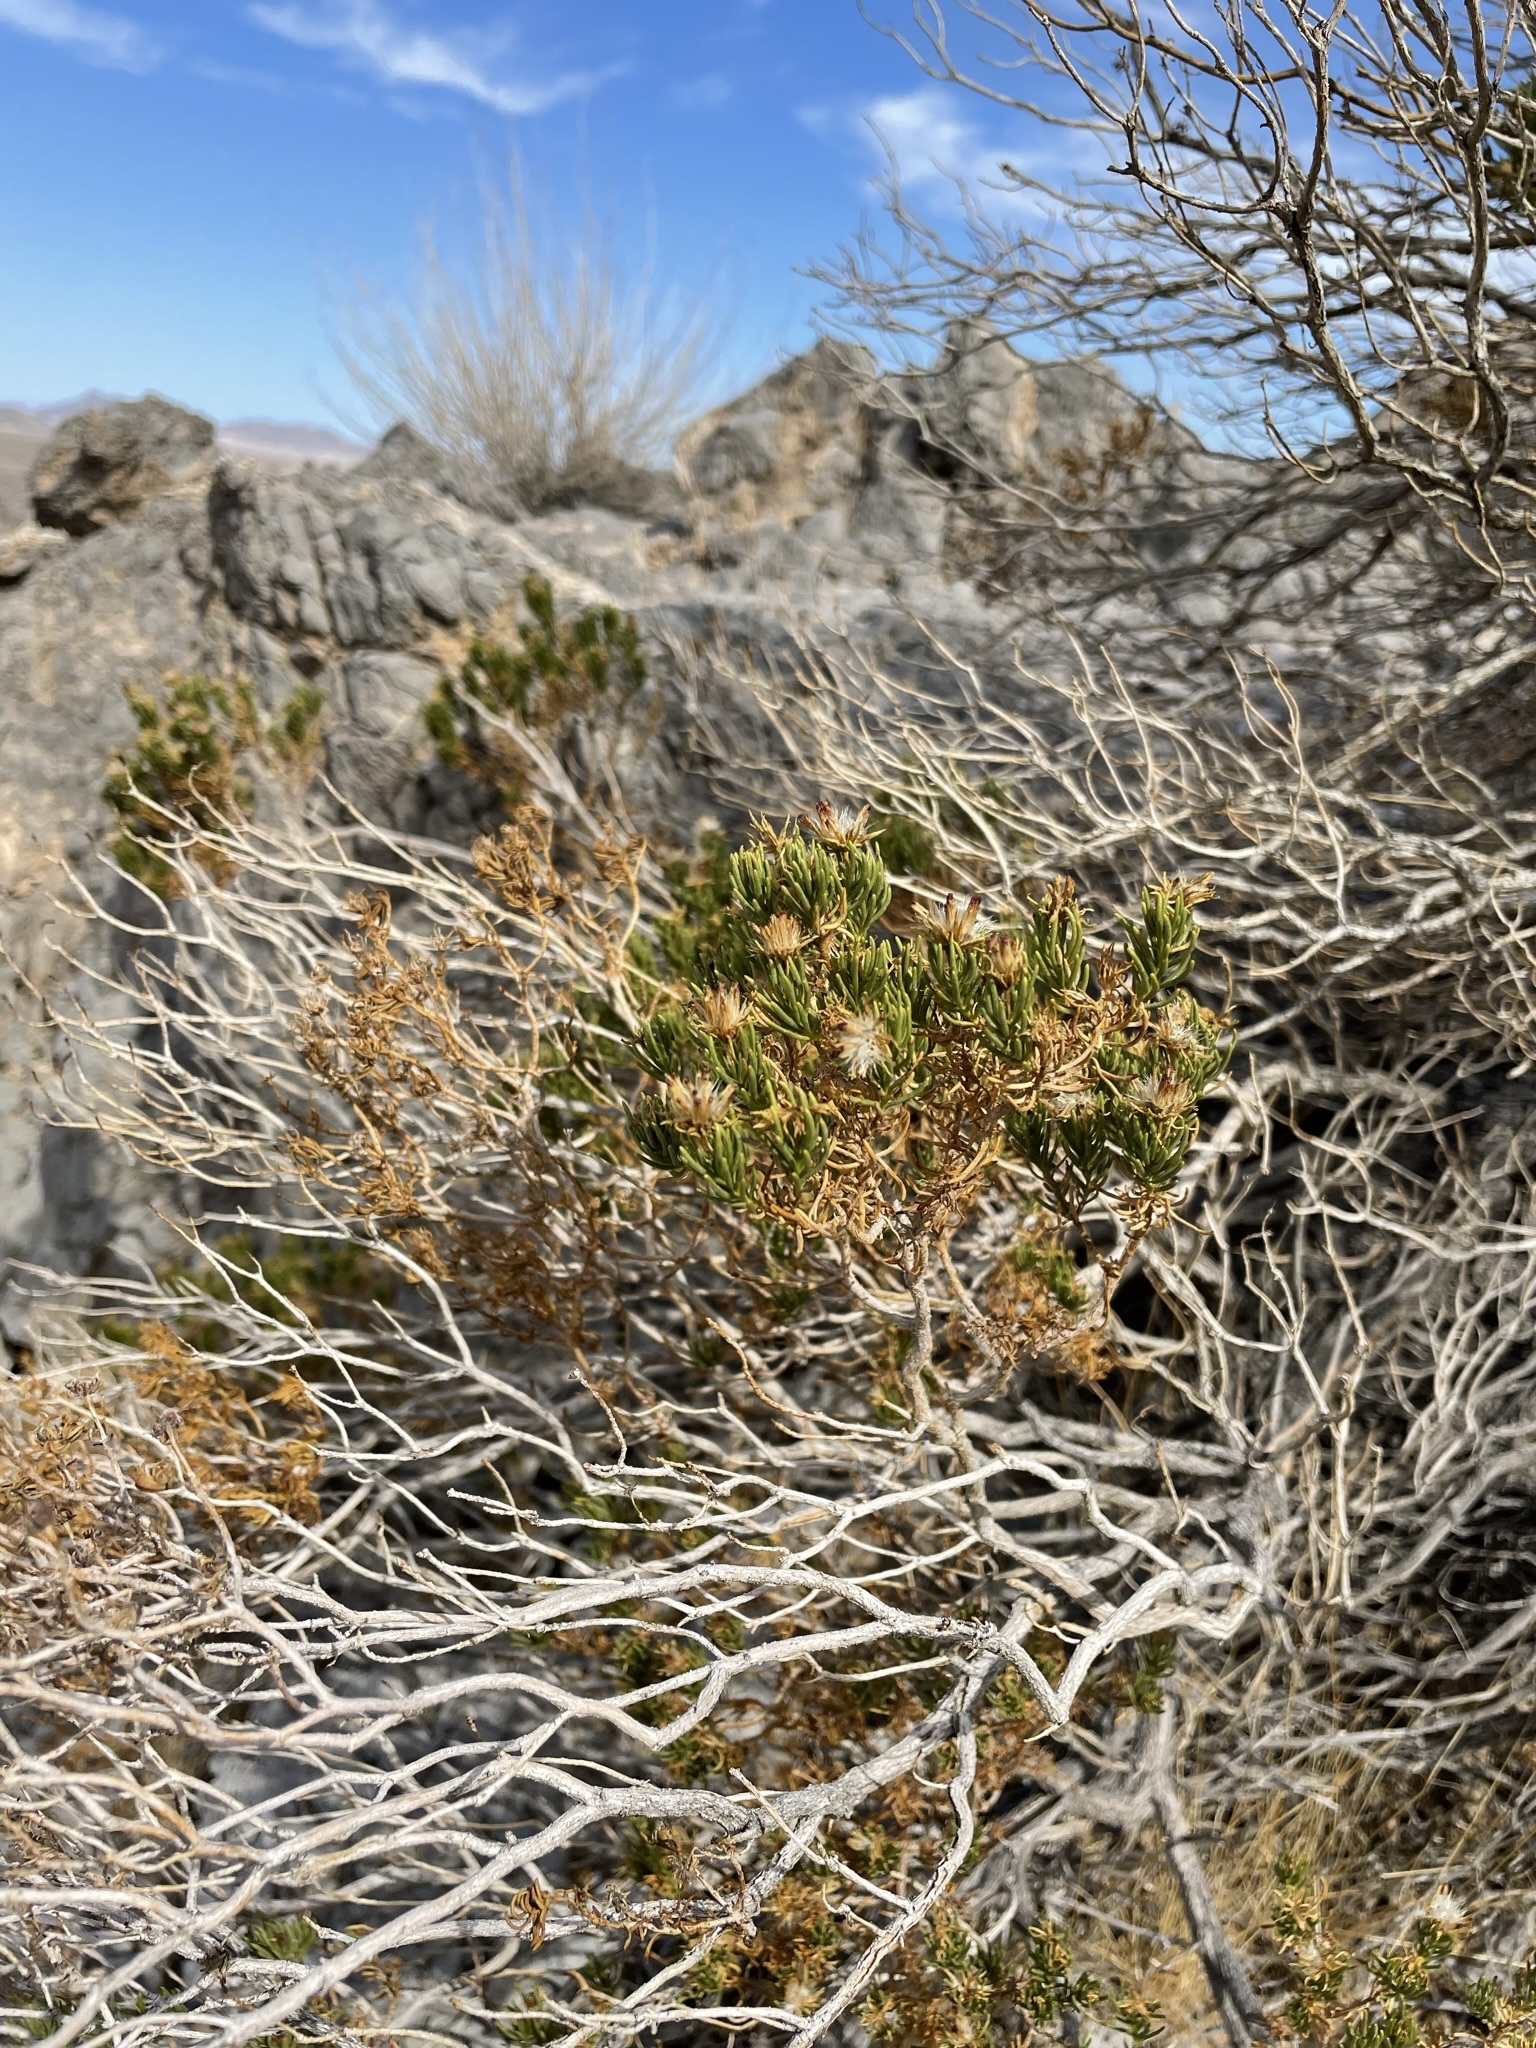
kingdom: Plantae
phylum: Tracheophyta
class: Magnoliopsida
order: Asterales
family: Asteraceae
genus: Peucephyllum
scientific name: Peucephyllum schottii
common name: Pygmy-cedar
